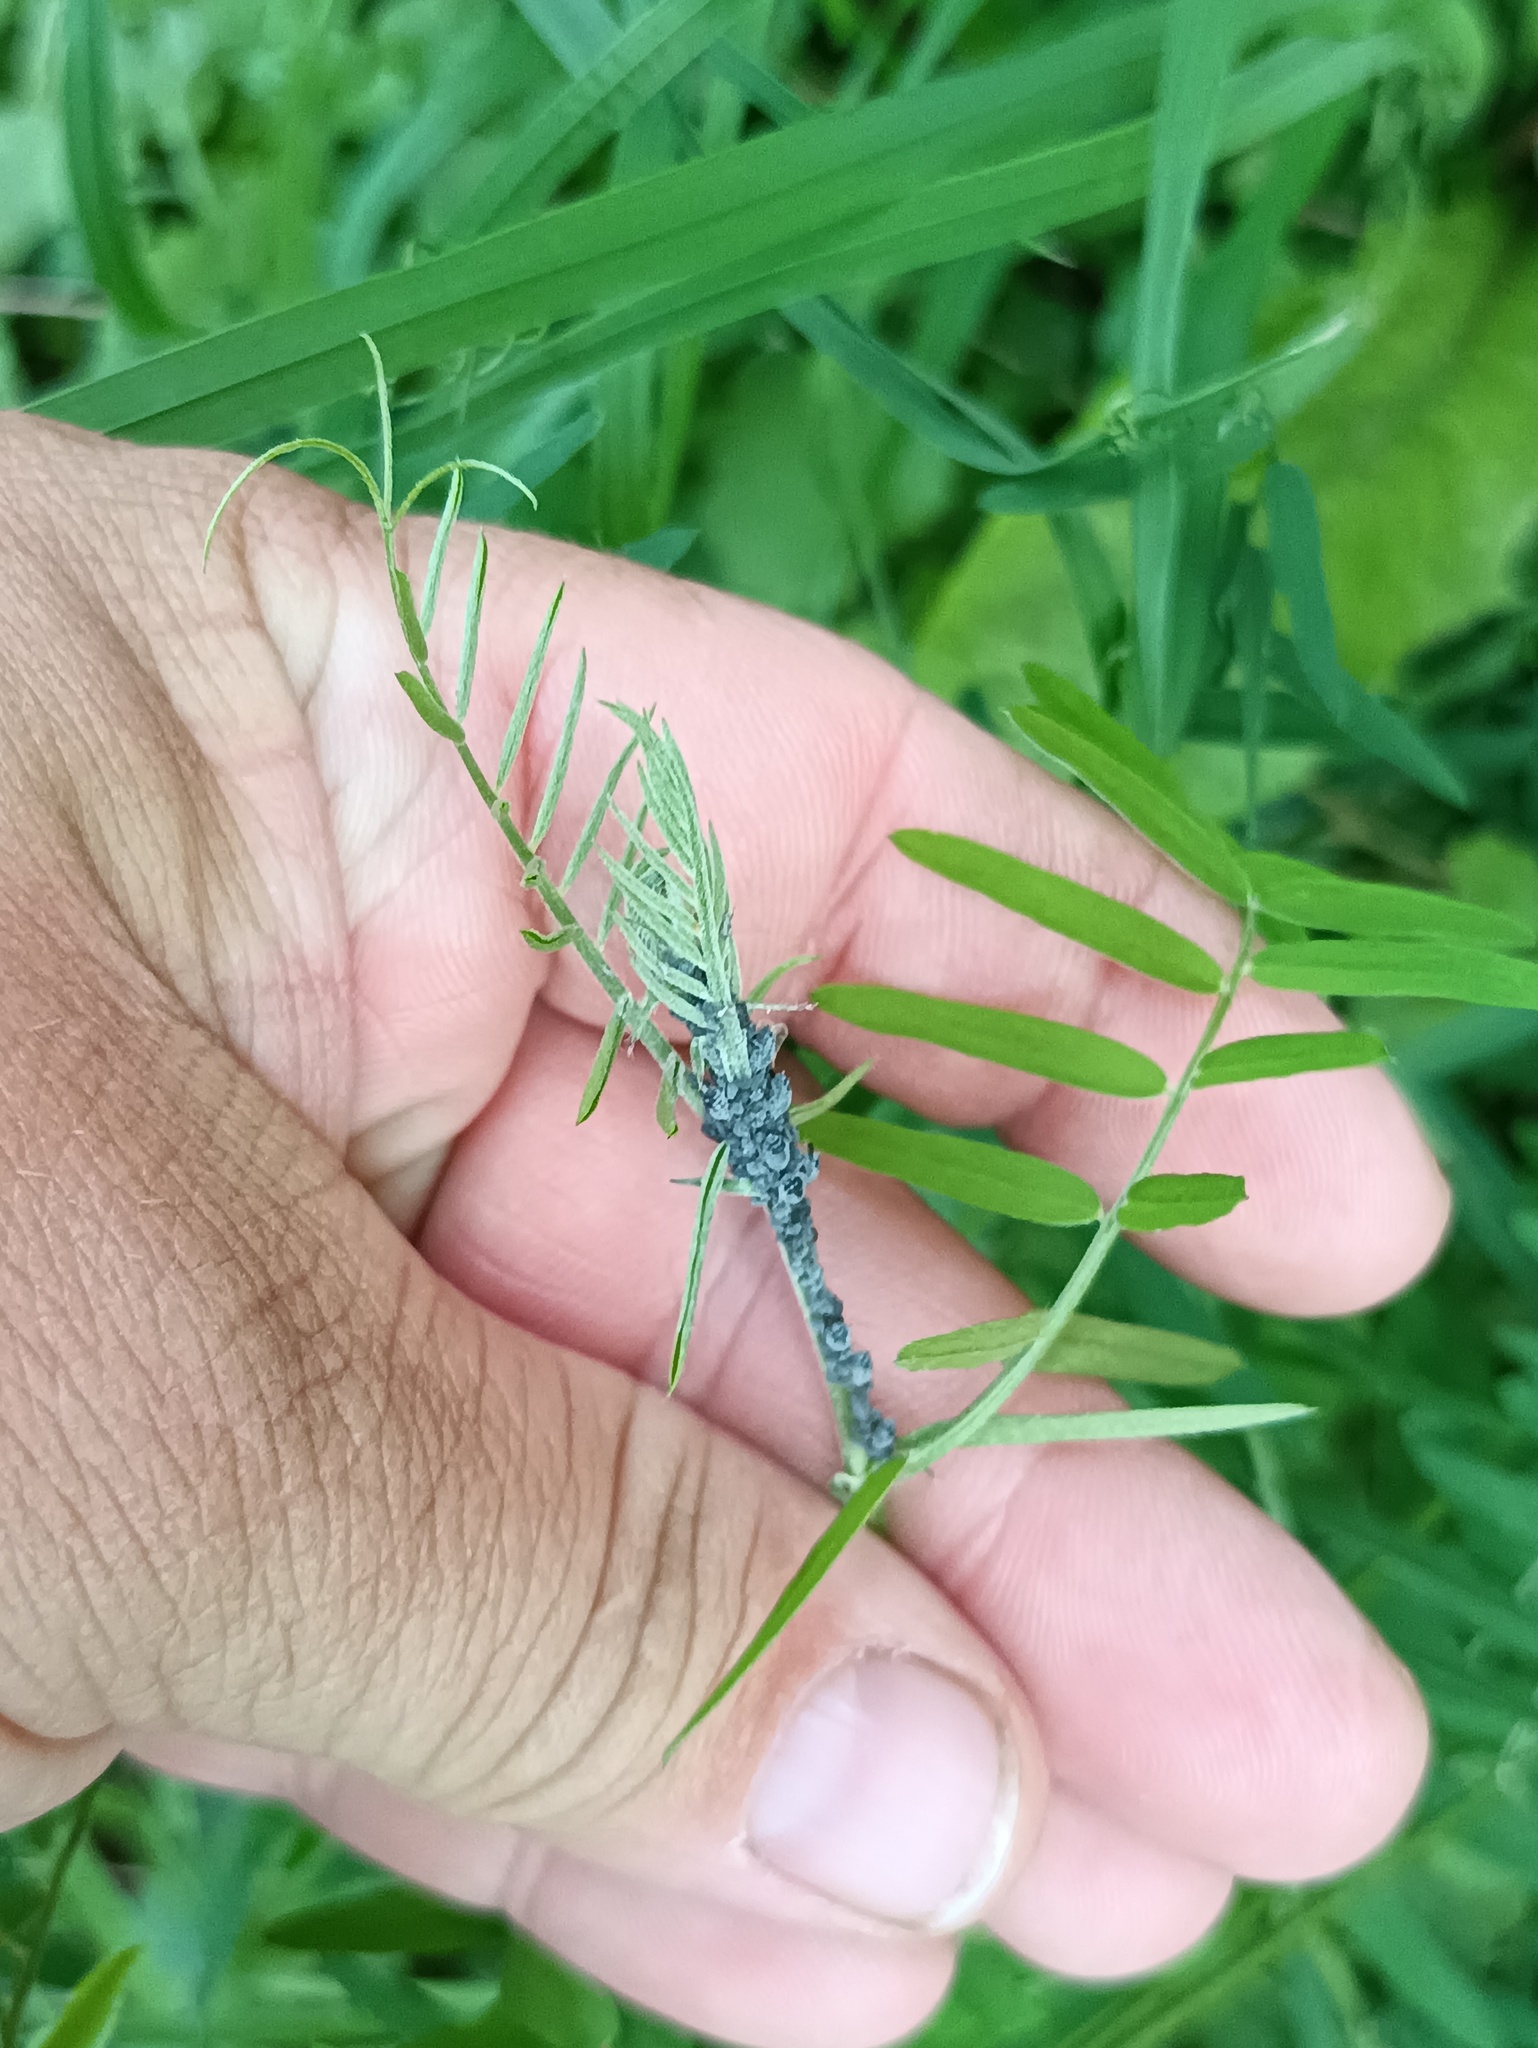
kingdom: Plantae
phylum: Tracheophyta
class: Magnoliopsida
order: Fabales
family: Fabaceae
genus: Vicia
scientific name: Vicia cracca
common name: Bird vetch
